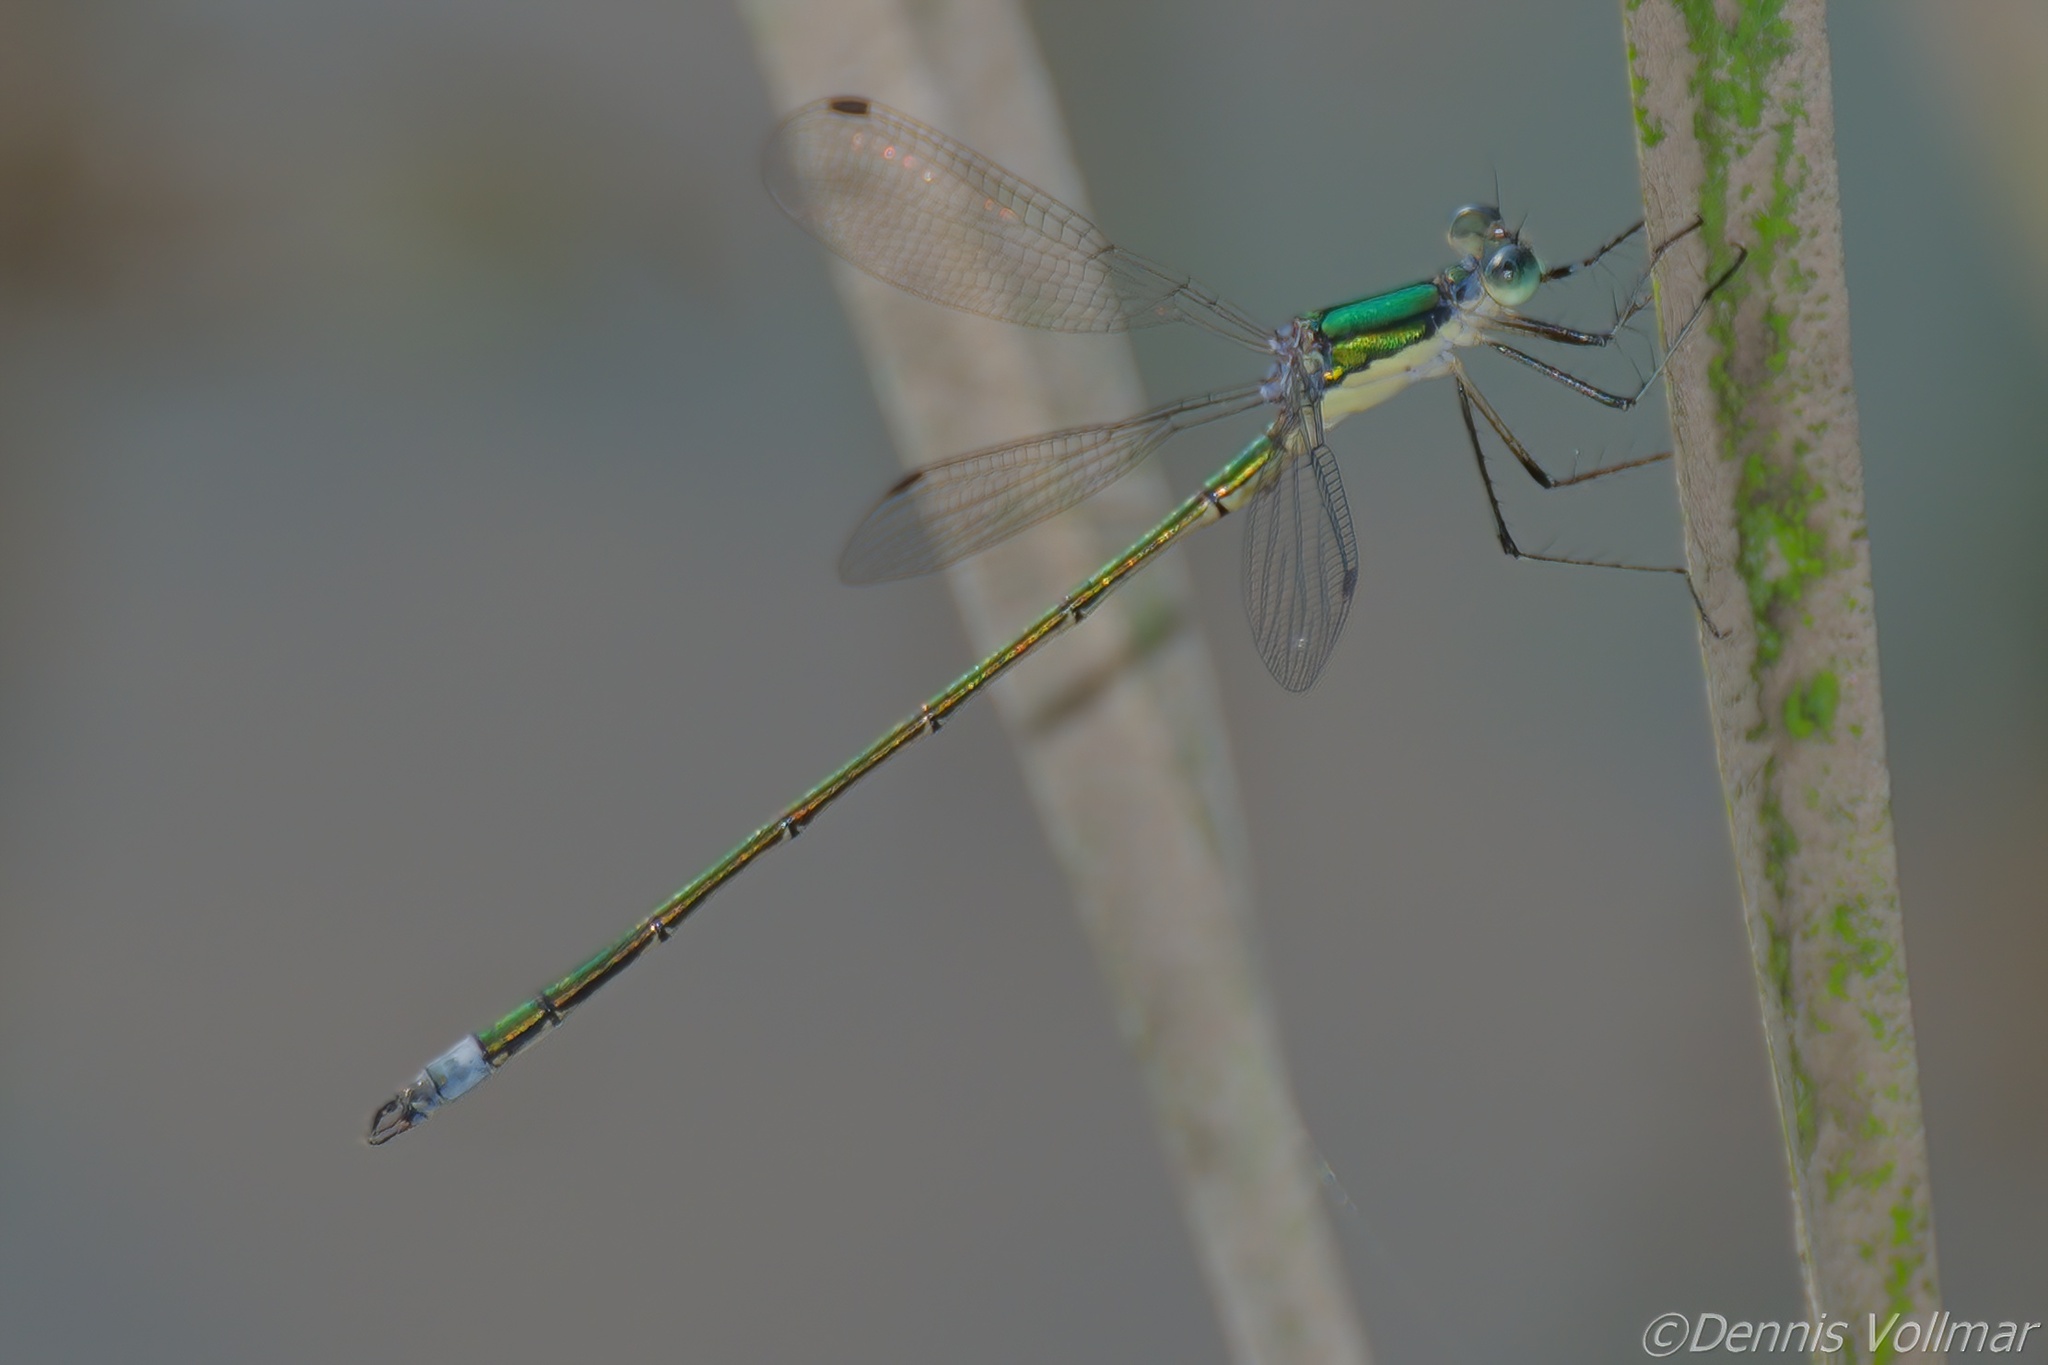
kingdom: Animalia
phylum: Arthropoda
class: Insecta
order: Odonata
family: Lestidae
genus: Lestes
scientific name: Lestes inaequalis
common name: Elegant spreadwing
